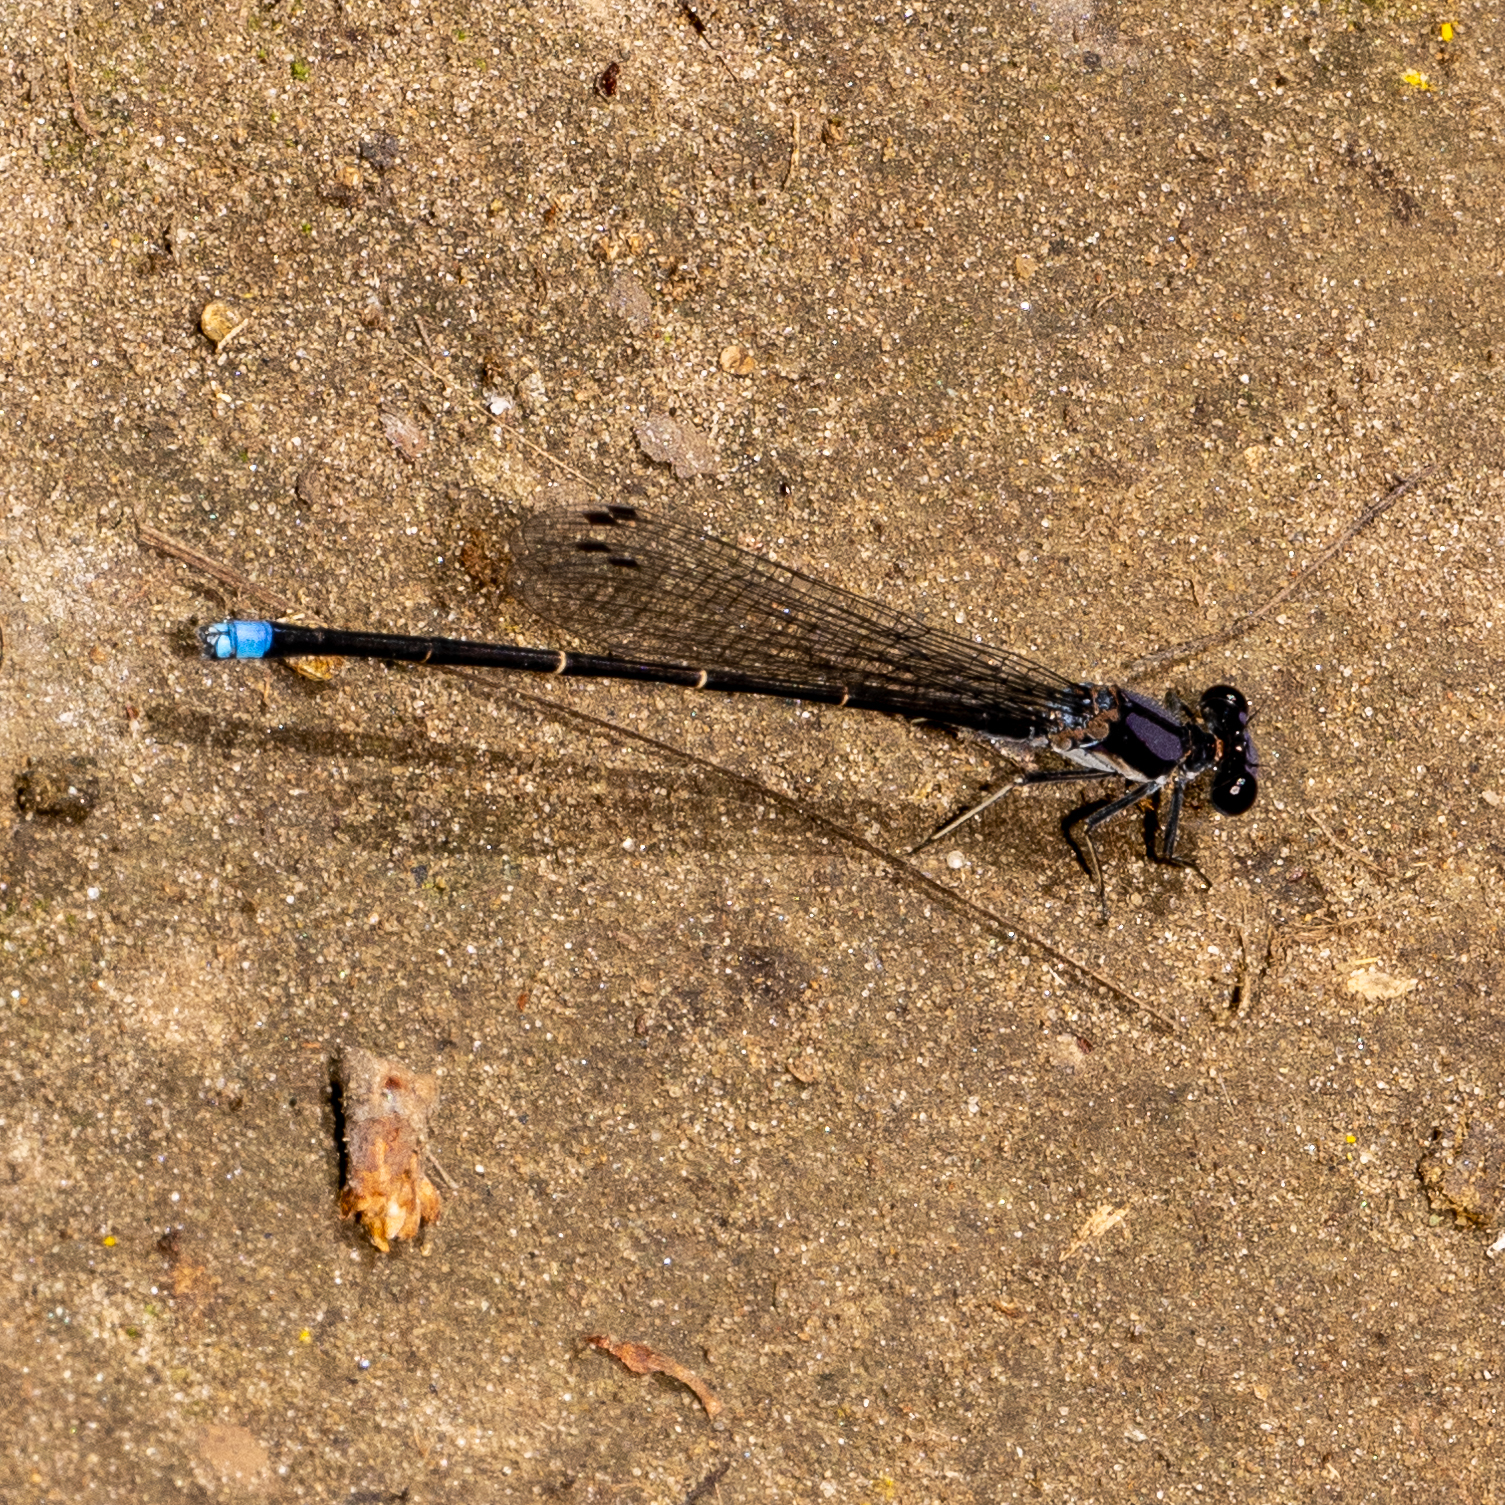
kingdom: Animalia
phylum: Arthropoda
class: Insecta
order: Odonata
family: Coenagrionidae
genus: Argia
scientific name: Argia tibialis
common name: Blue-tipped dancer
